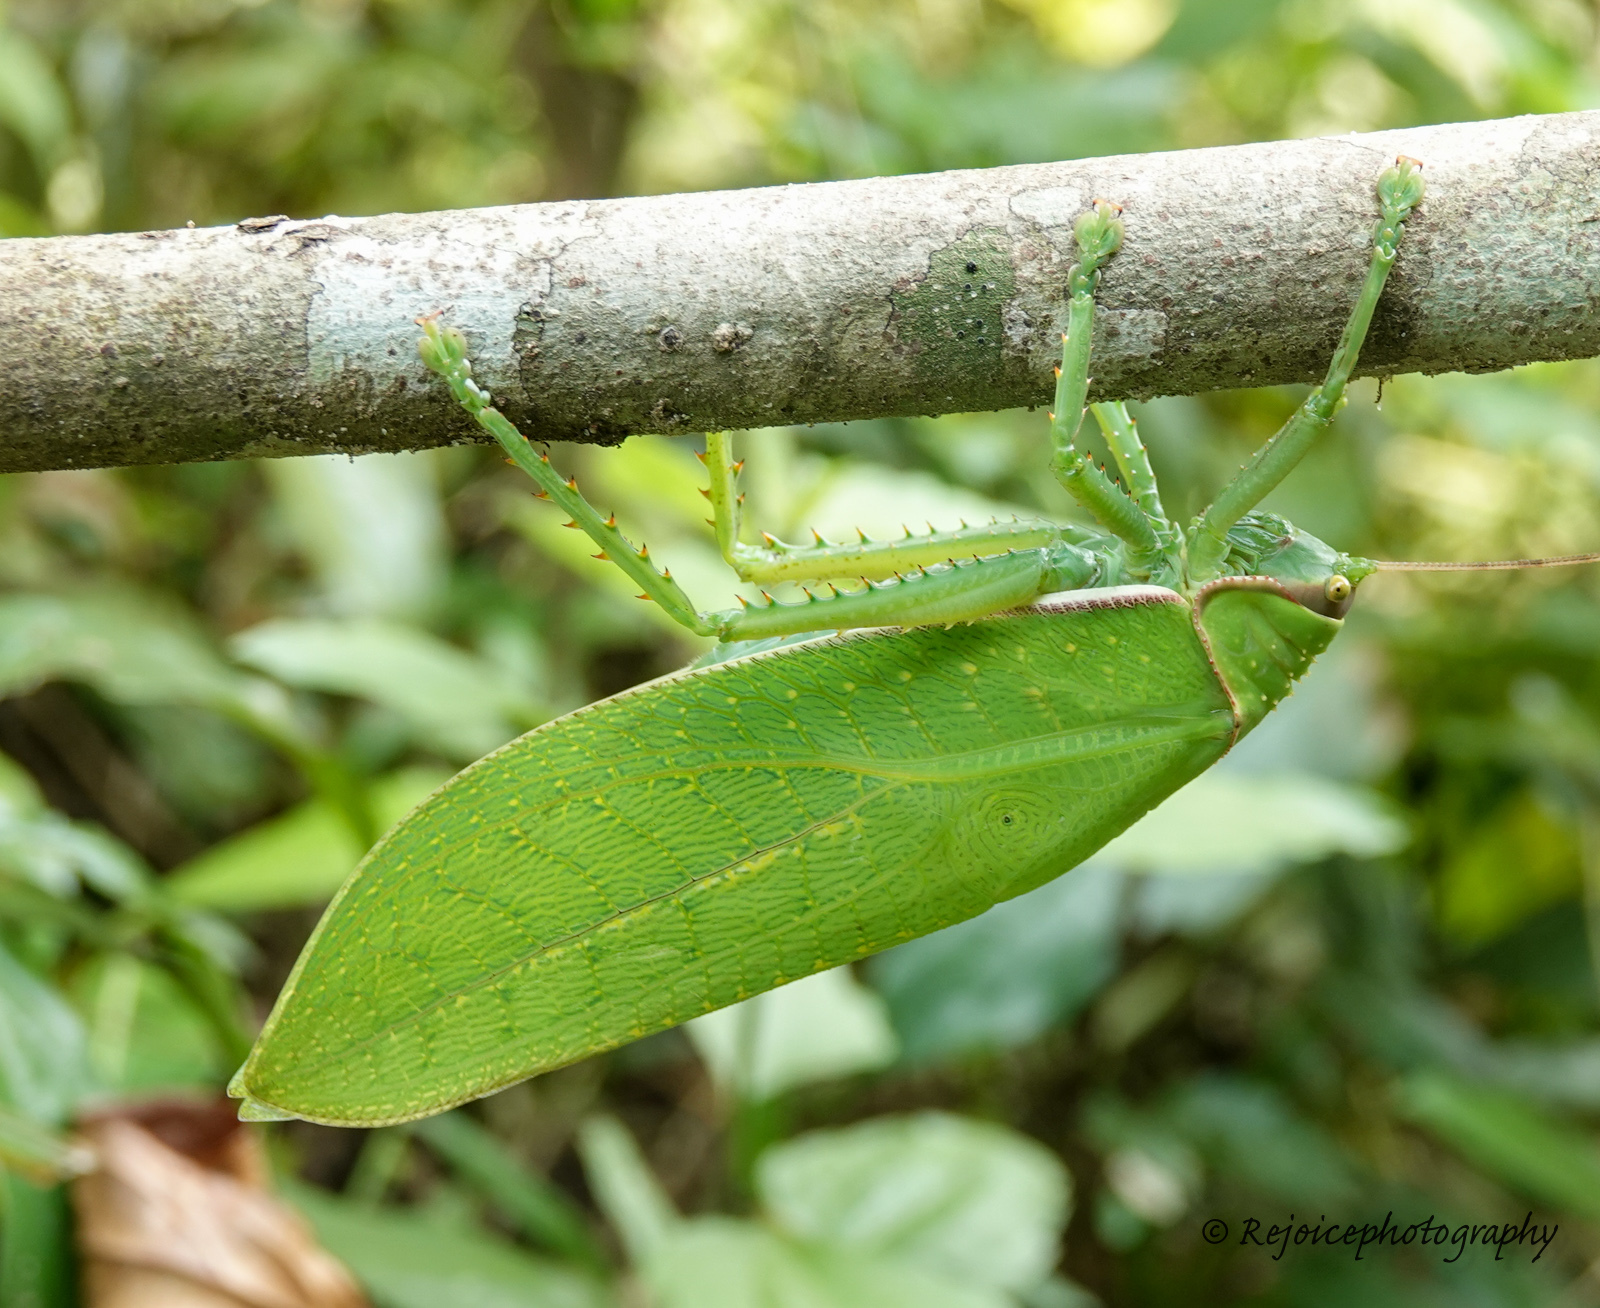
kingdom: Animalia
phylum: Arthropoda
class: Insecta
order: Orthoptera
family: Tettigoniidae
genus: Pseudophyllus
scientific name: Pseudophyllus titan
